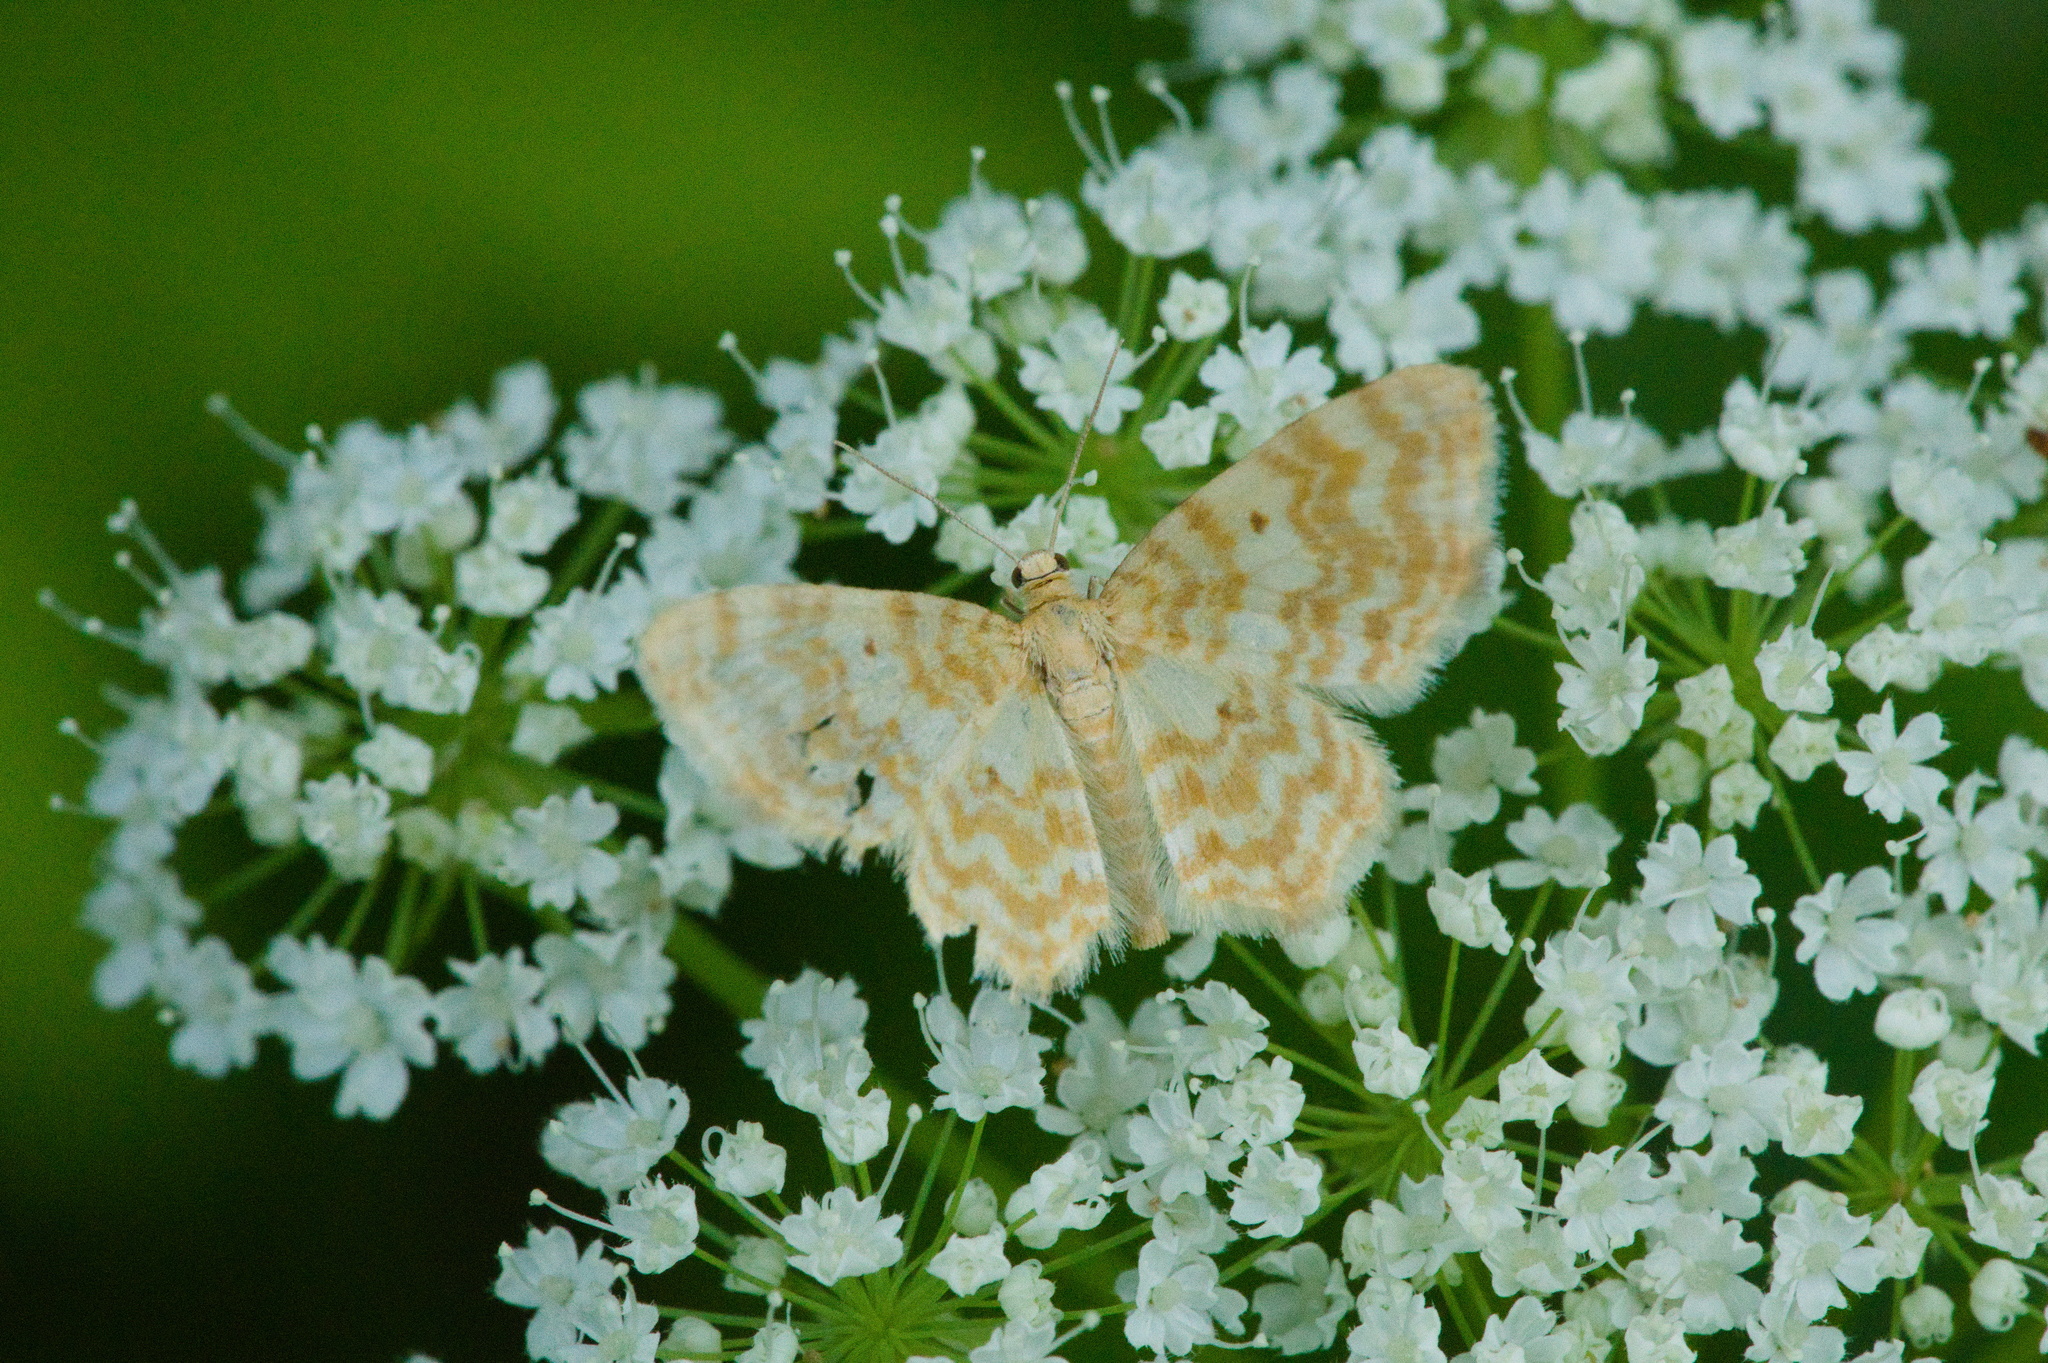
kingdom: Animalia
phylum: Arthropoda
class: Insecta
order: Lepidoptera
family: Geometridae
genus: Hydrelia
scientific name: Hydrelia flammeolaria
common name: Small yellow wave
